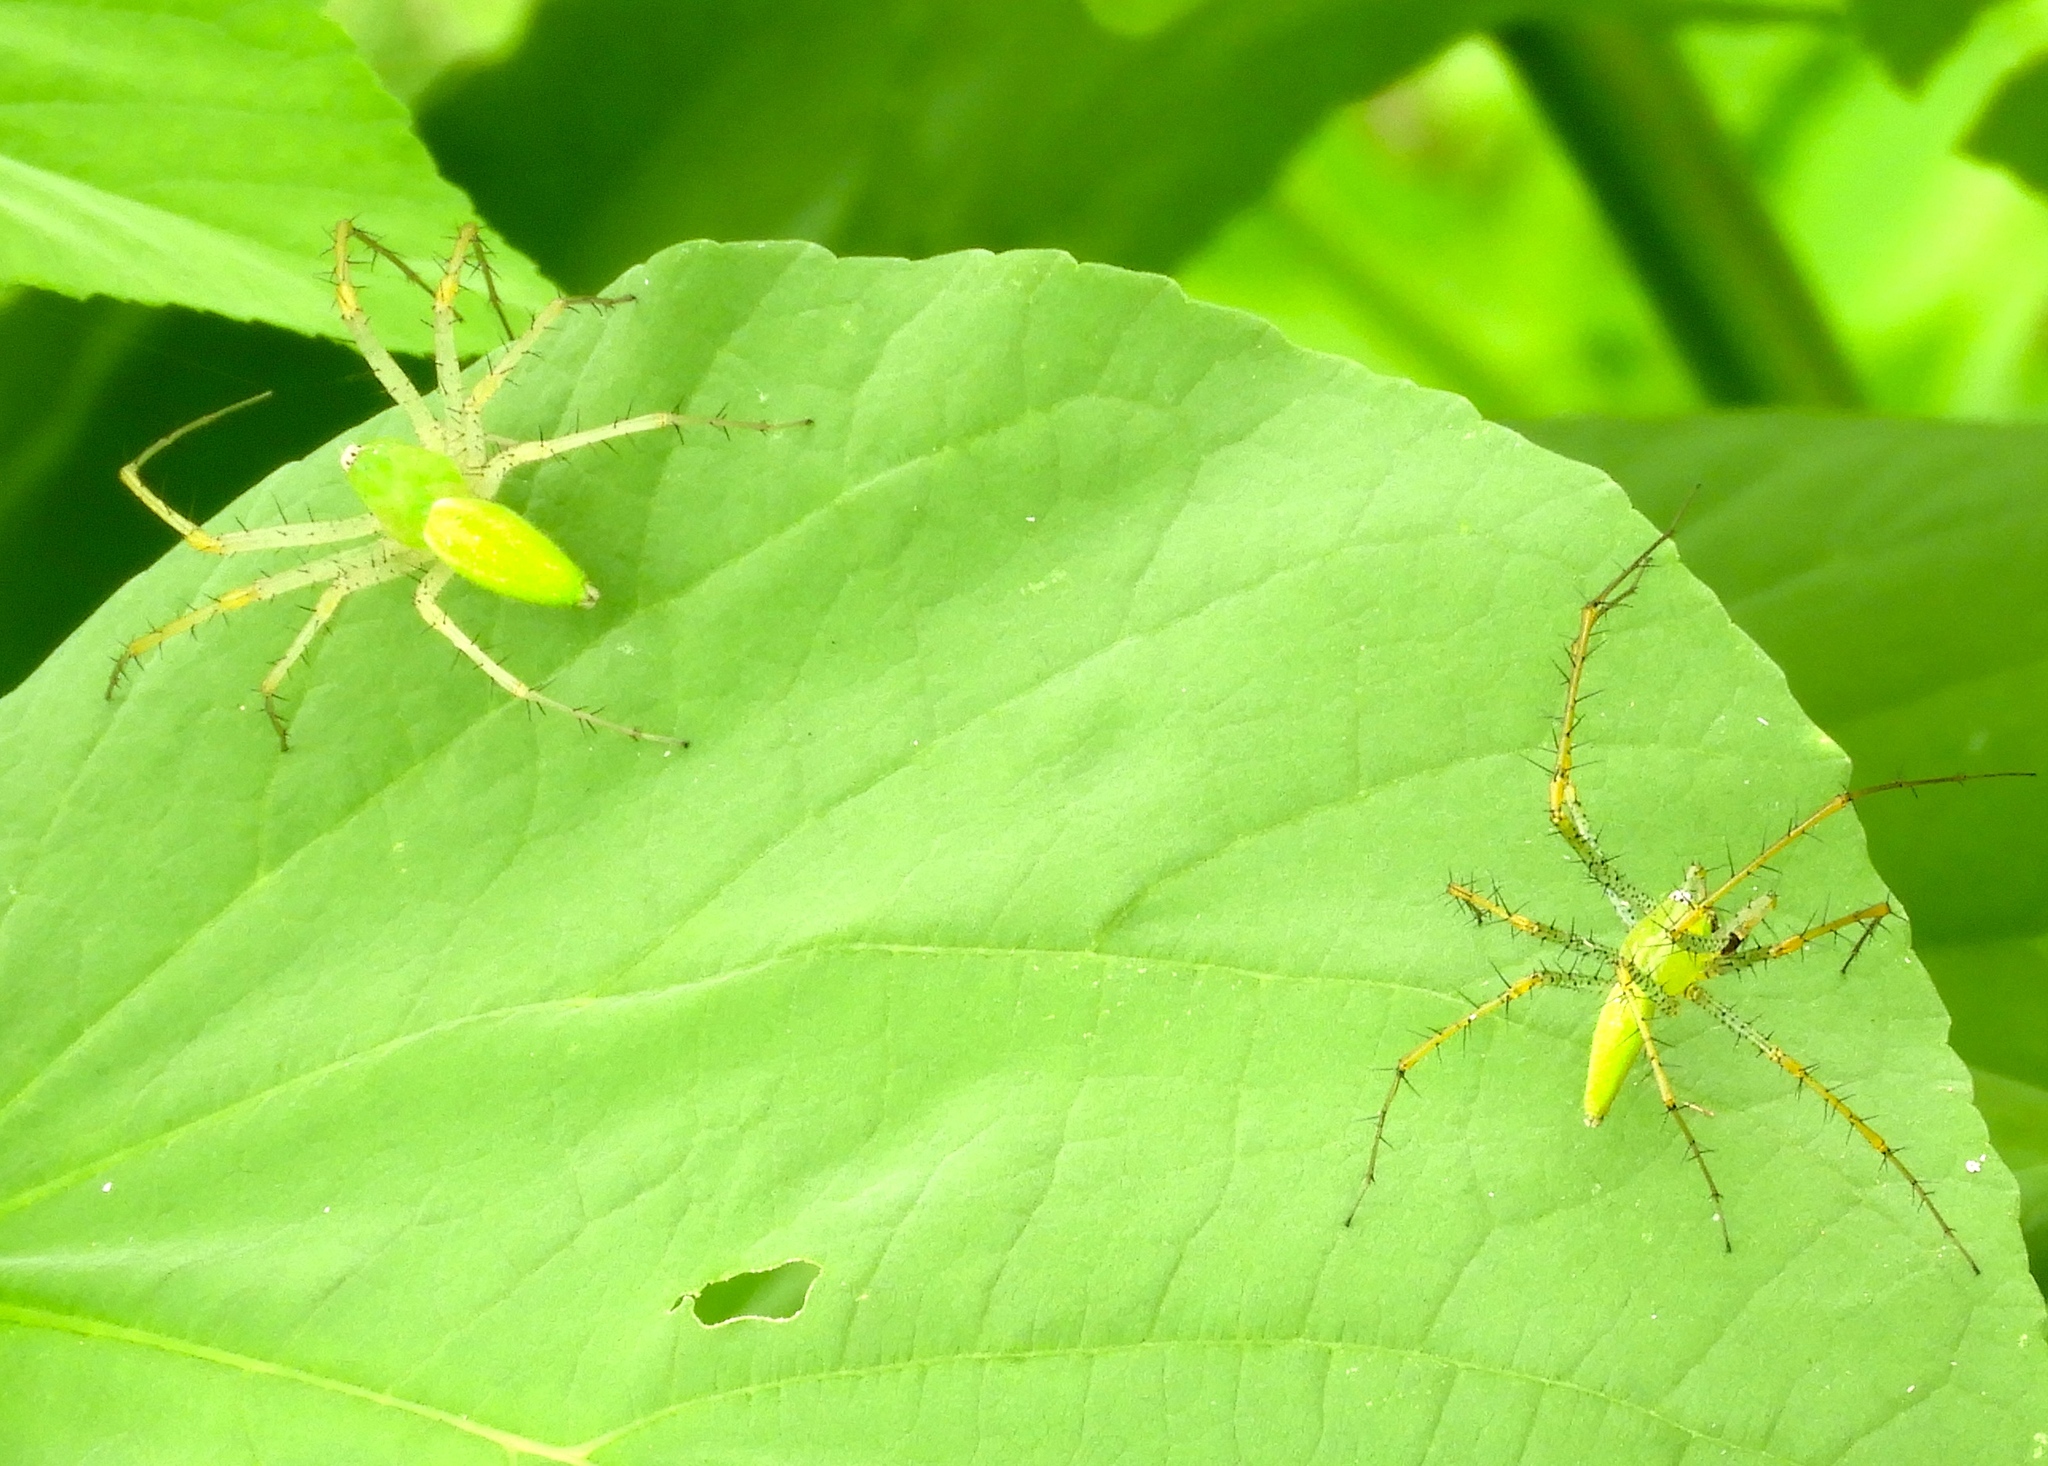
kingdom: Animalia
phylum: Arthropoda
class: Arachnida
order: Araneae
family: Oxyopidae
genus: Peucetia
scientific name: Peucetia longipalpis
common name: Lynx spiders
